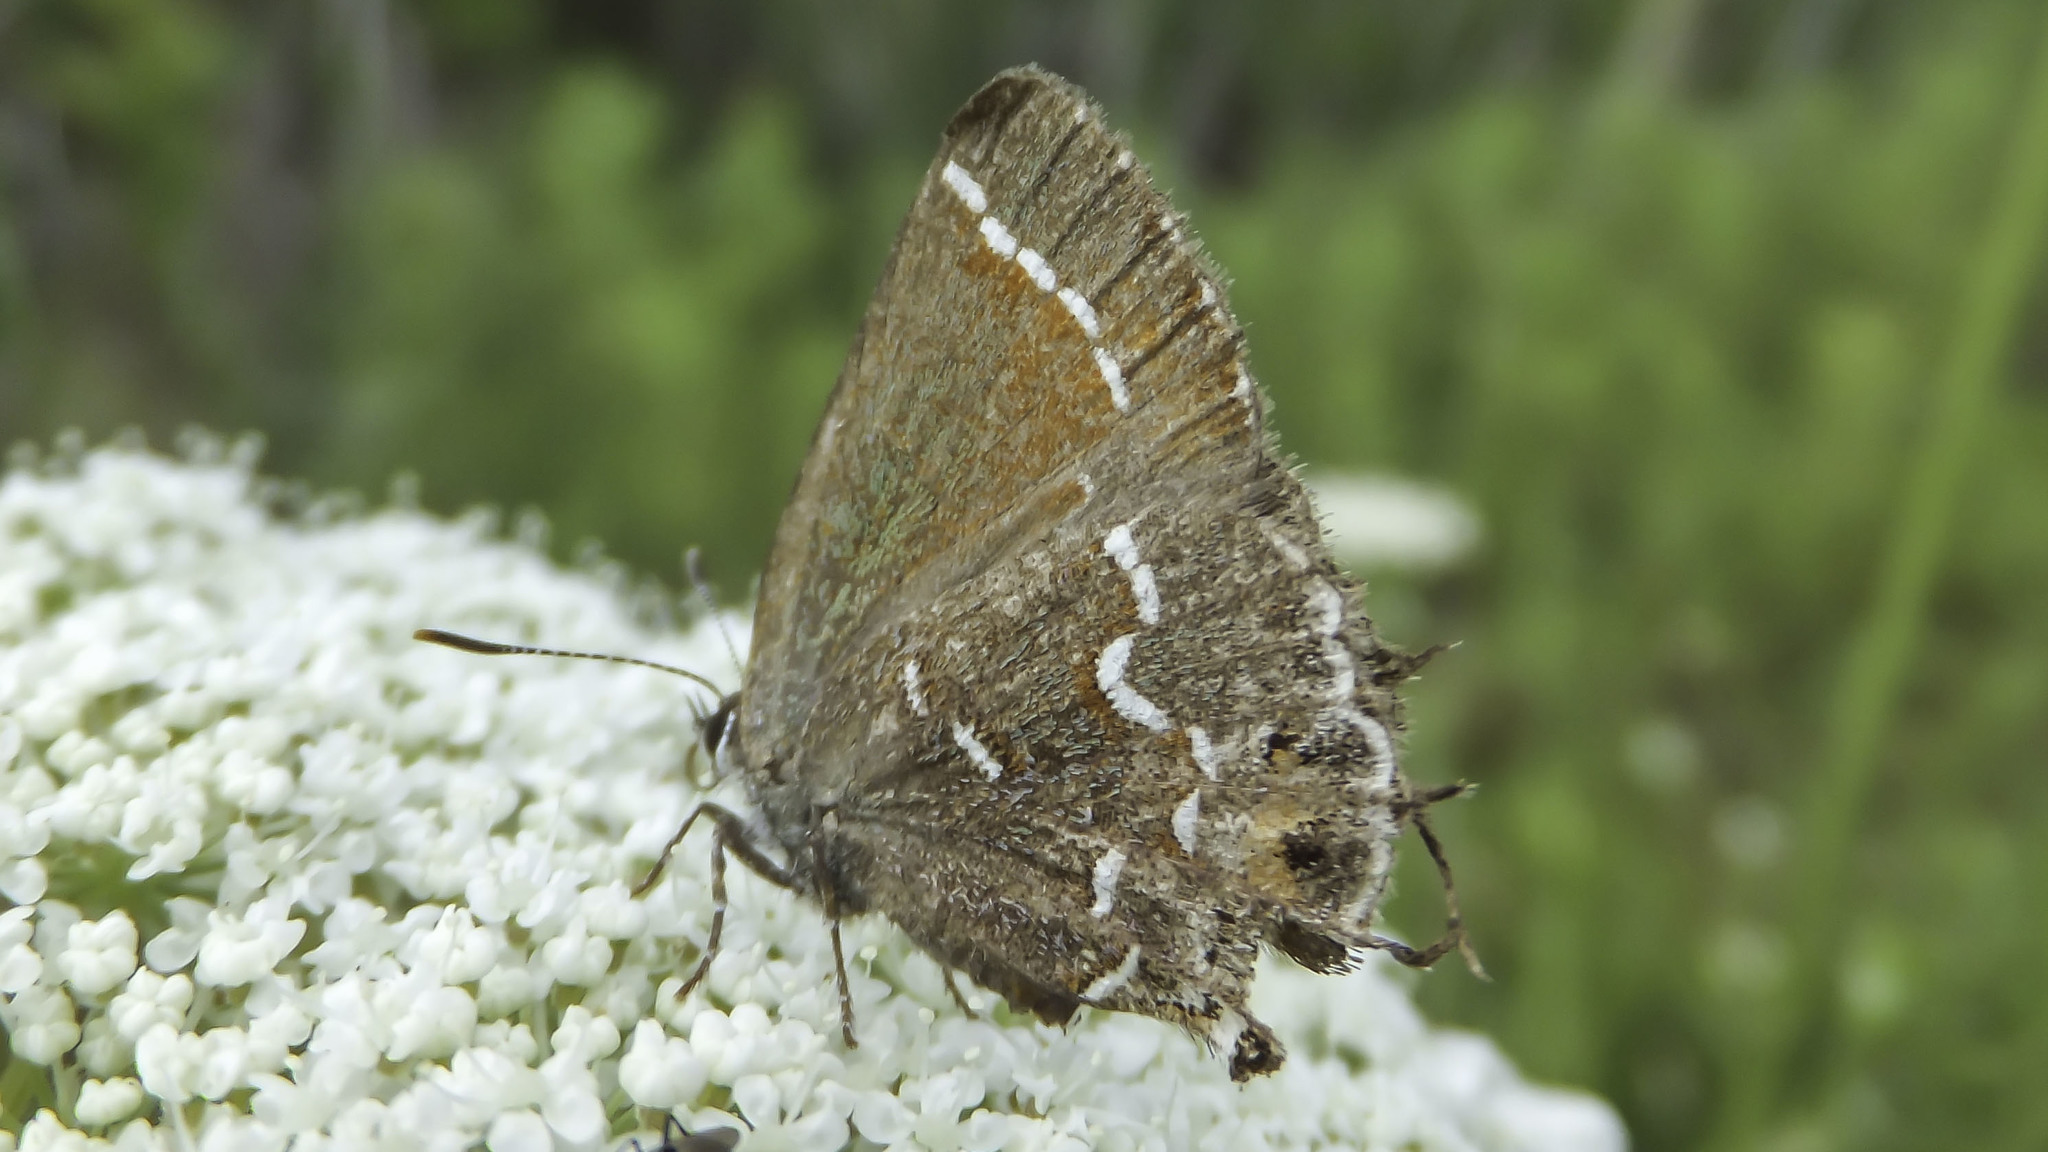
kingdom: Animalia
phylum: Arthropoda
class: Insecta
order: Lepidoptera
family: Lycaenidae
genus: Mitoura
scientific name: Mitoura gryneus
